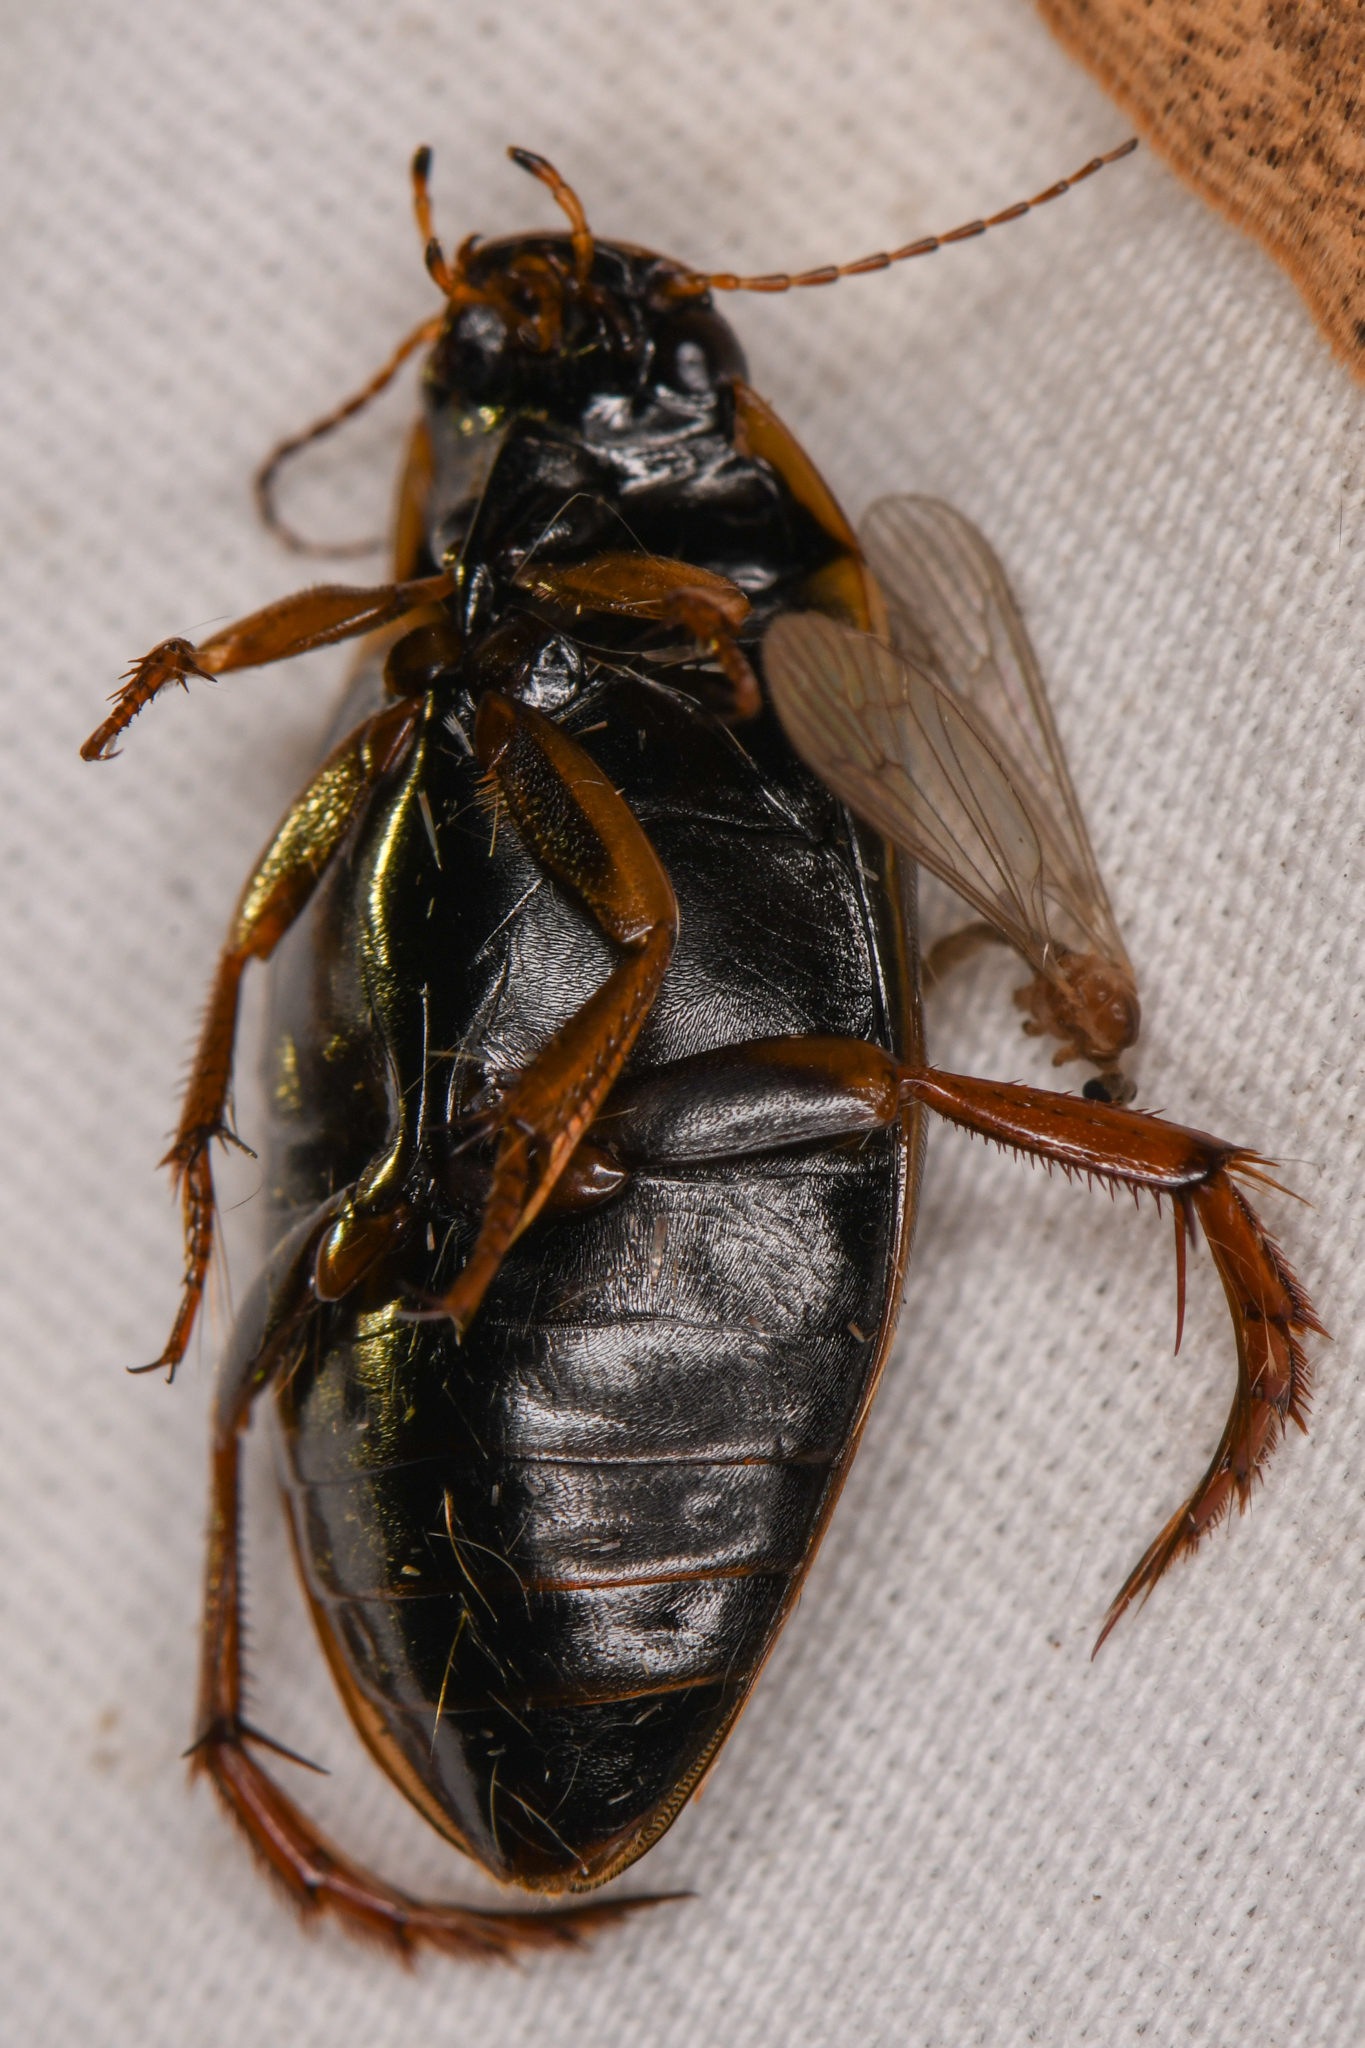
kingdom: Animalia
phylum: Arthropoda
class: Insecta
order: Coleoptera
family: Dytiscidae
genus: Colymbetes
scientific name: Colymbetes
